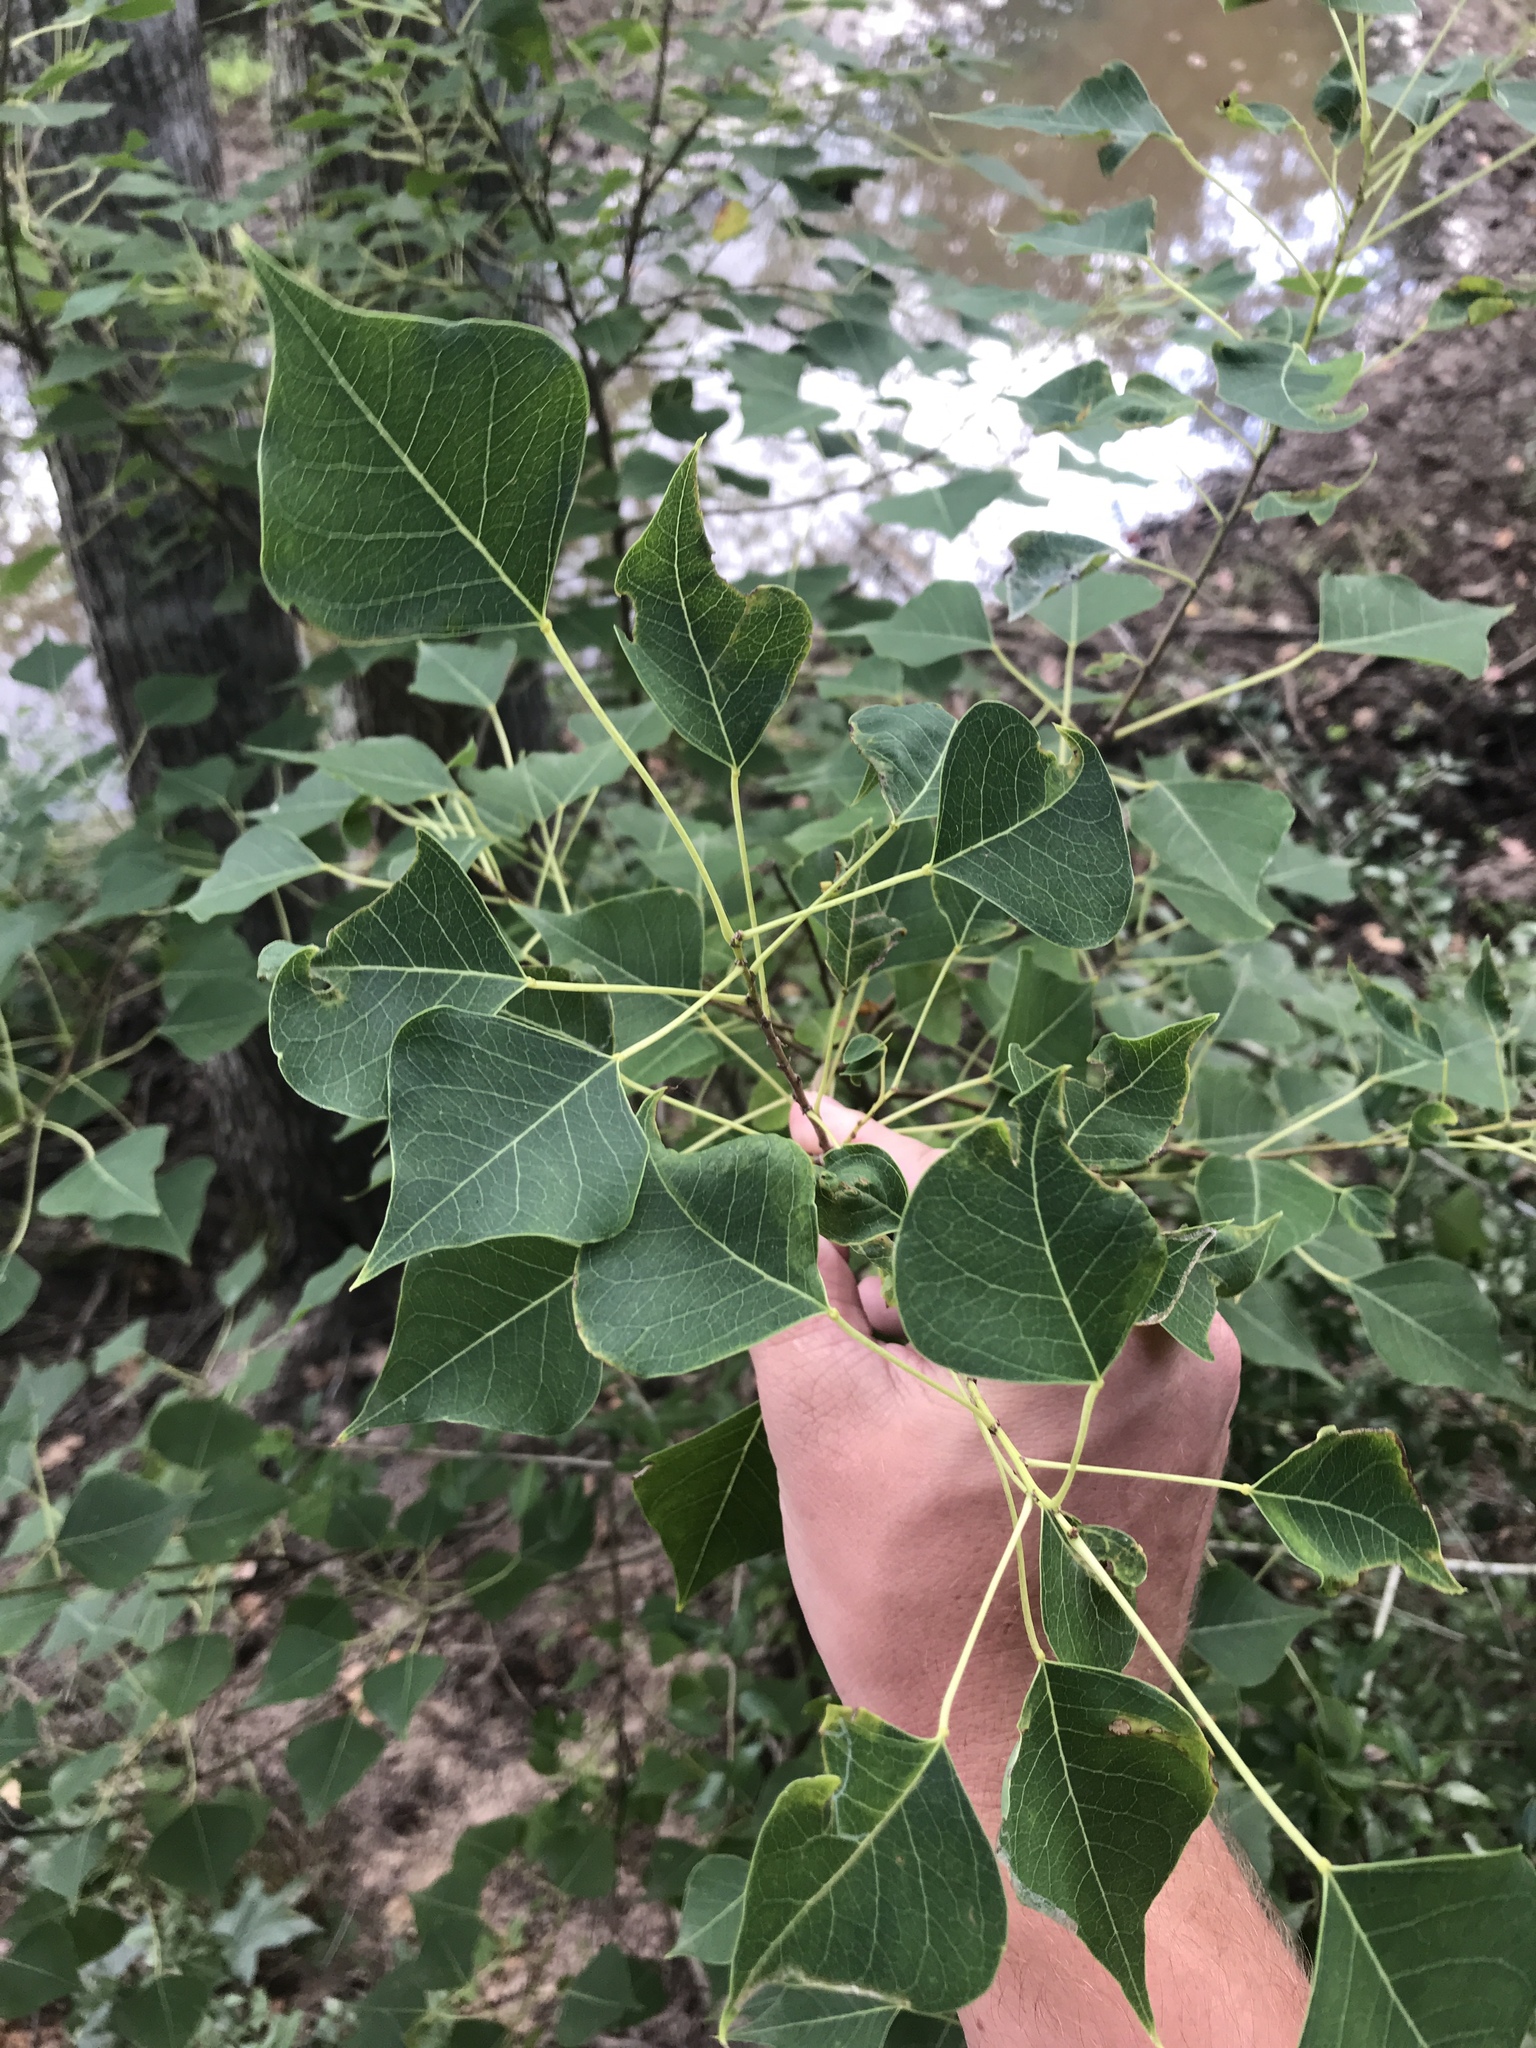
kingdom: Plantae
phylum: Tracheophyta
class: Magnoliopsida
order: Malpighiales
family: Euphorbiaceae
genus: Triadica
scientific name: Triadica sebifera
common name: Chinese tallow
